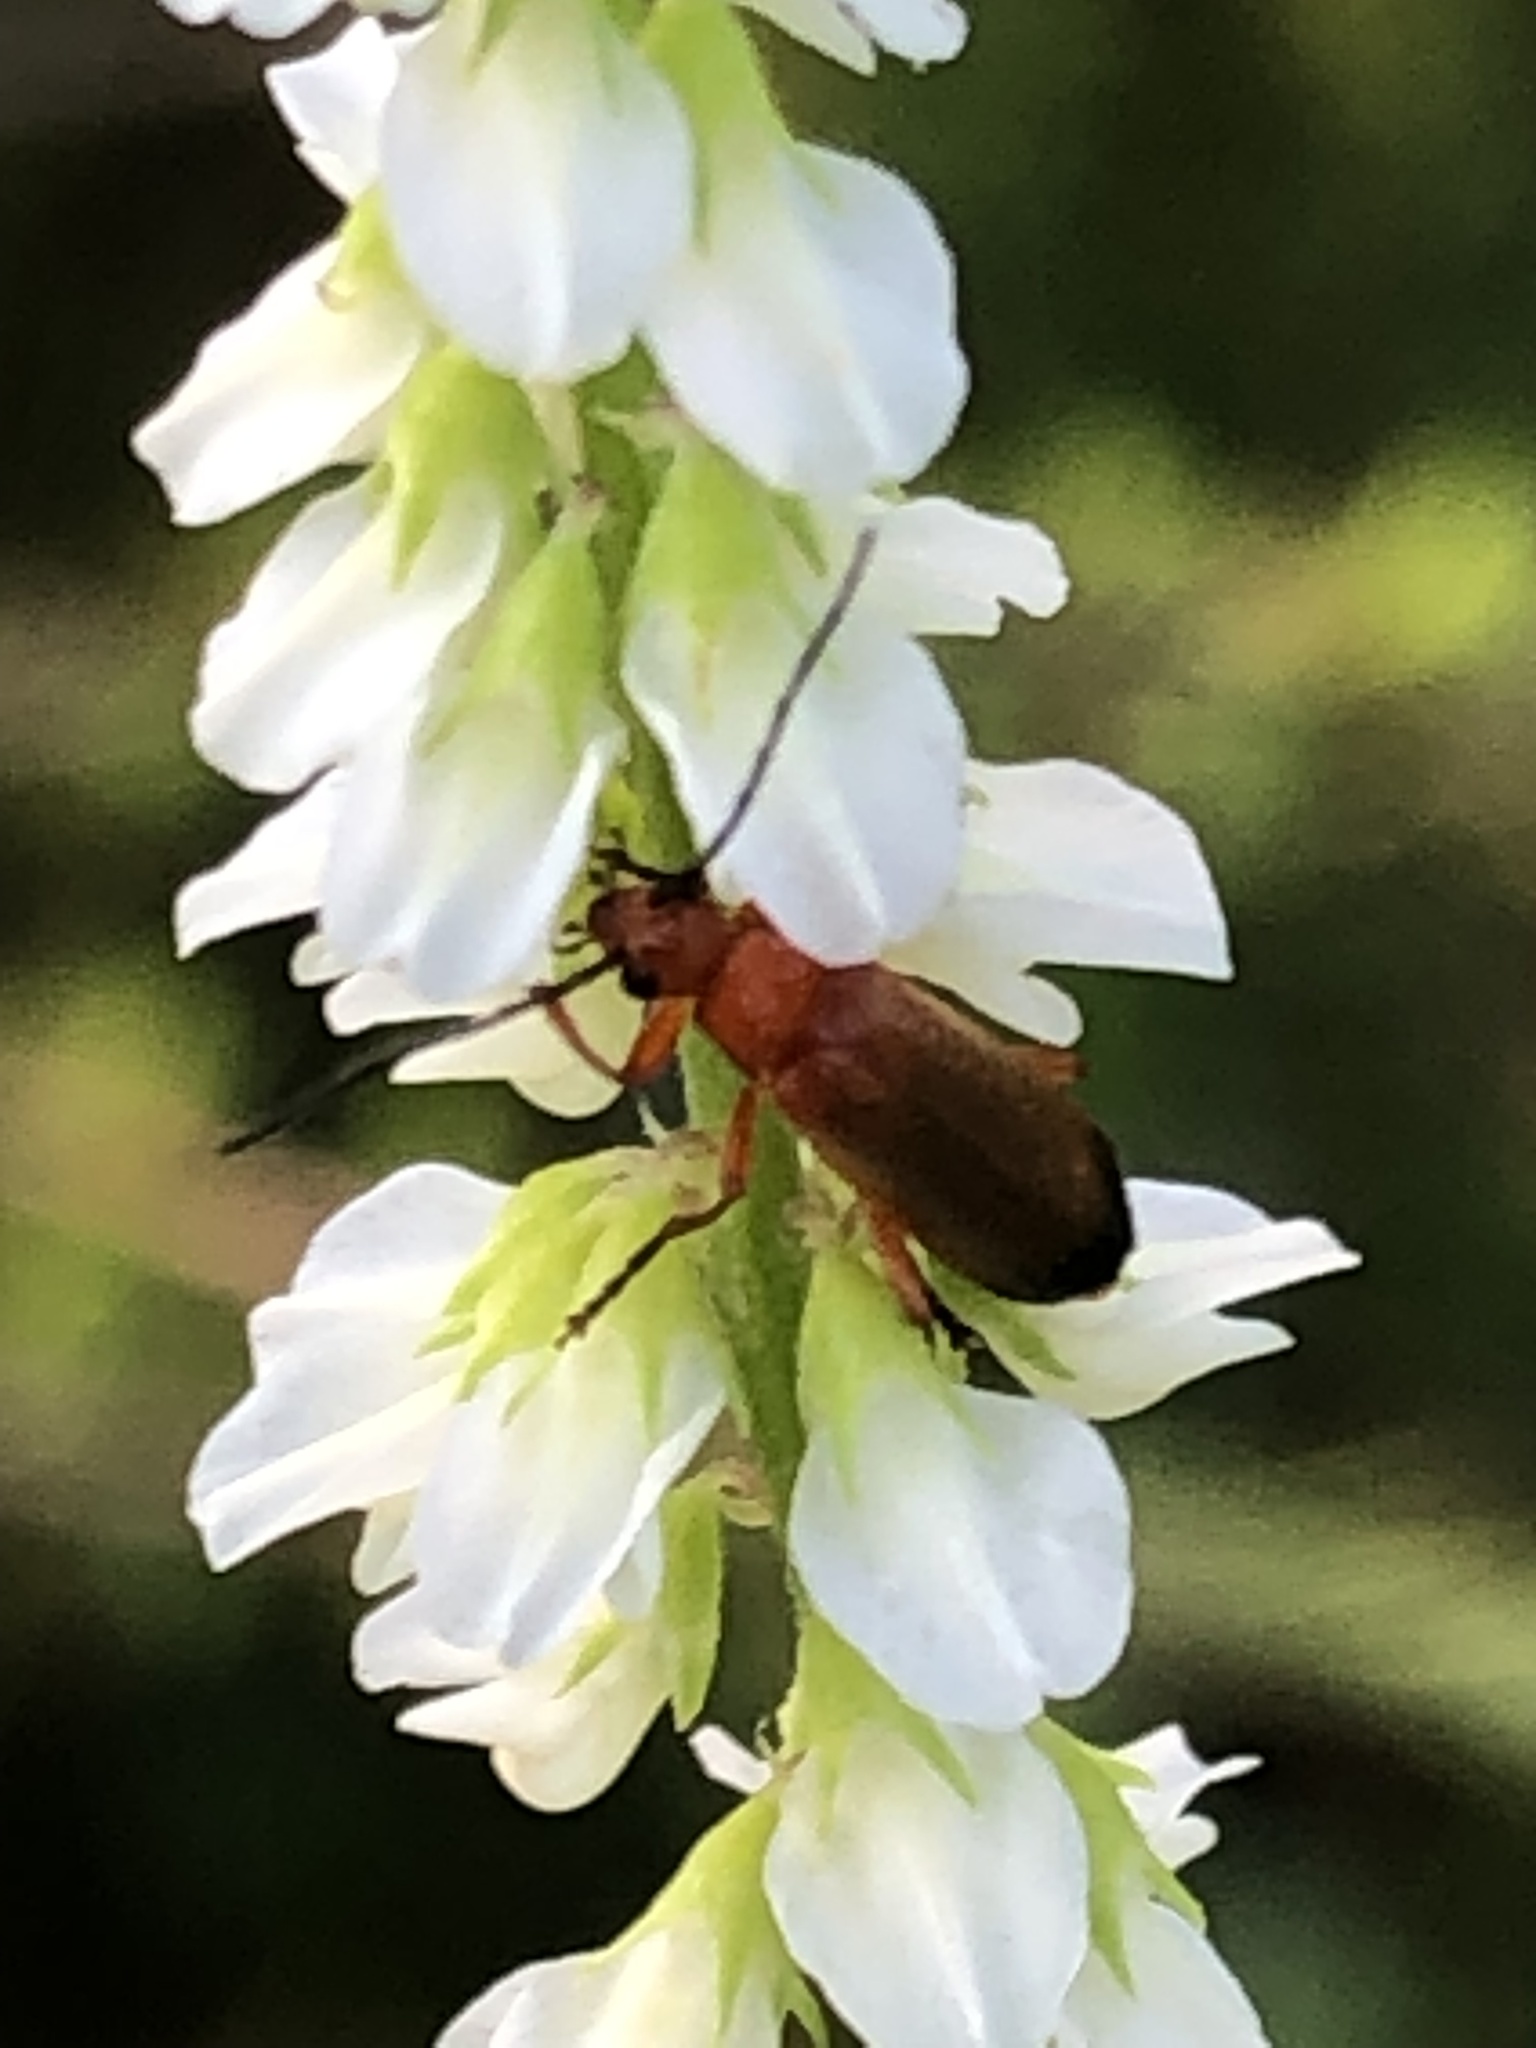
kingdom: Animalia
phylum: Arthropoda
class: Insecta
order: Coleoptera
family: Cantharidae
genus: Rhagonycha
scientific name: Rhagonycha fulva
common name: Common red soldier beetle
